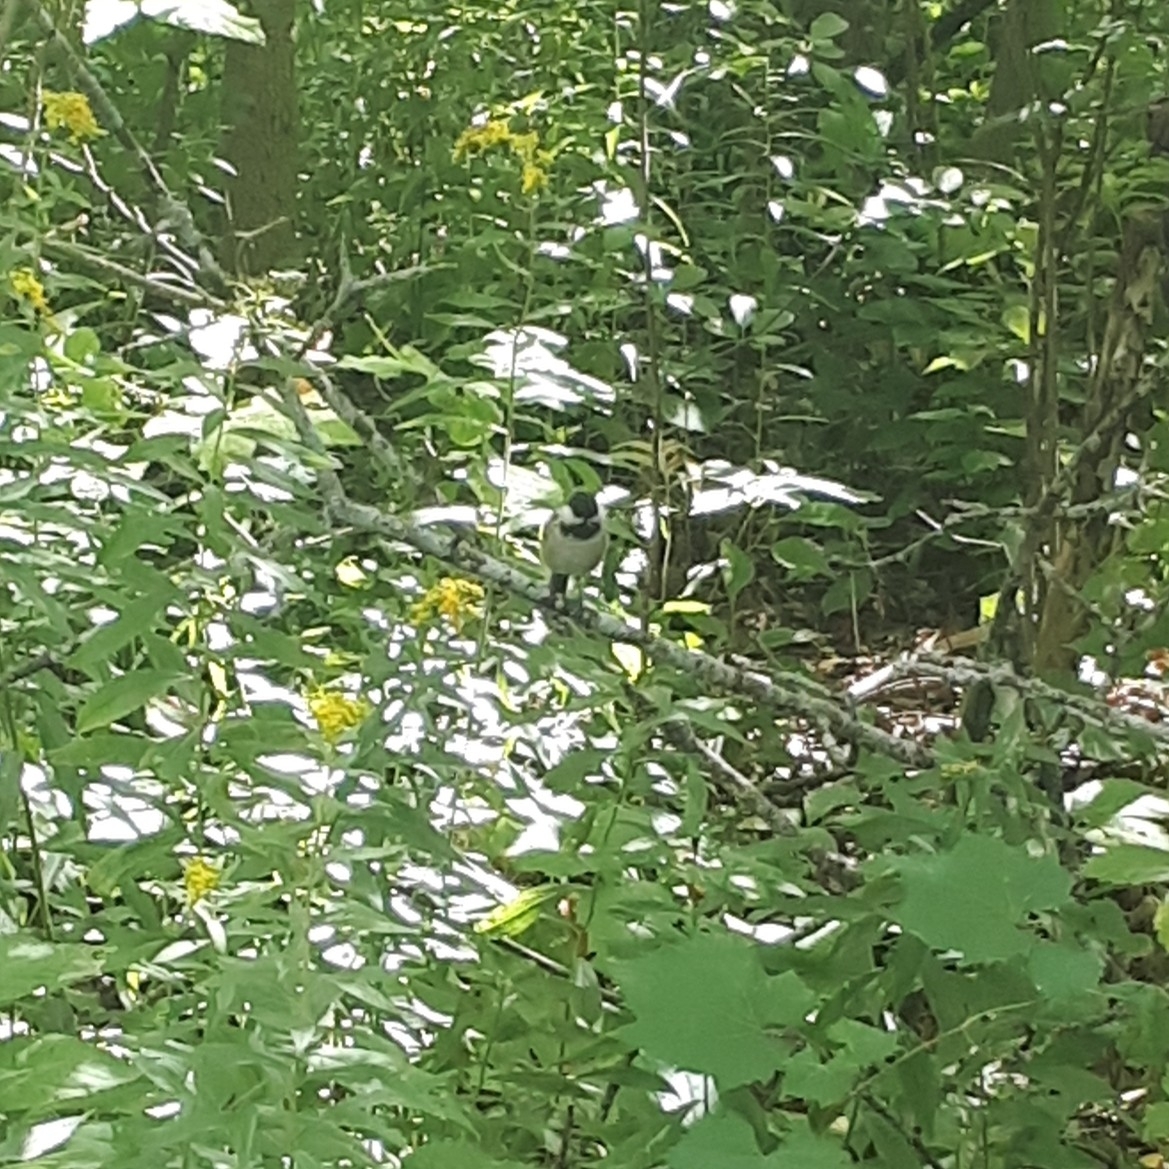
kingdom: Animalia
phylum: Chordata
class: Aves
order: Passeriformes
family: Paridae
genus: Poecile
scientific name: Poecile atricapillus
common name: Black-capped chickadee
